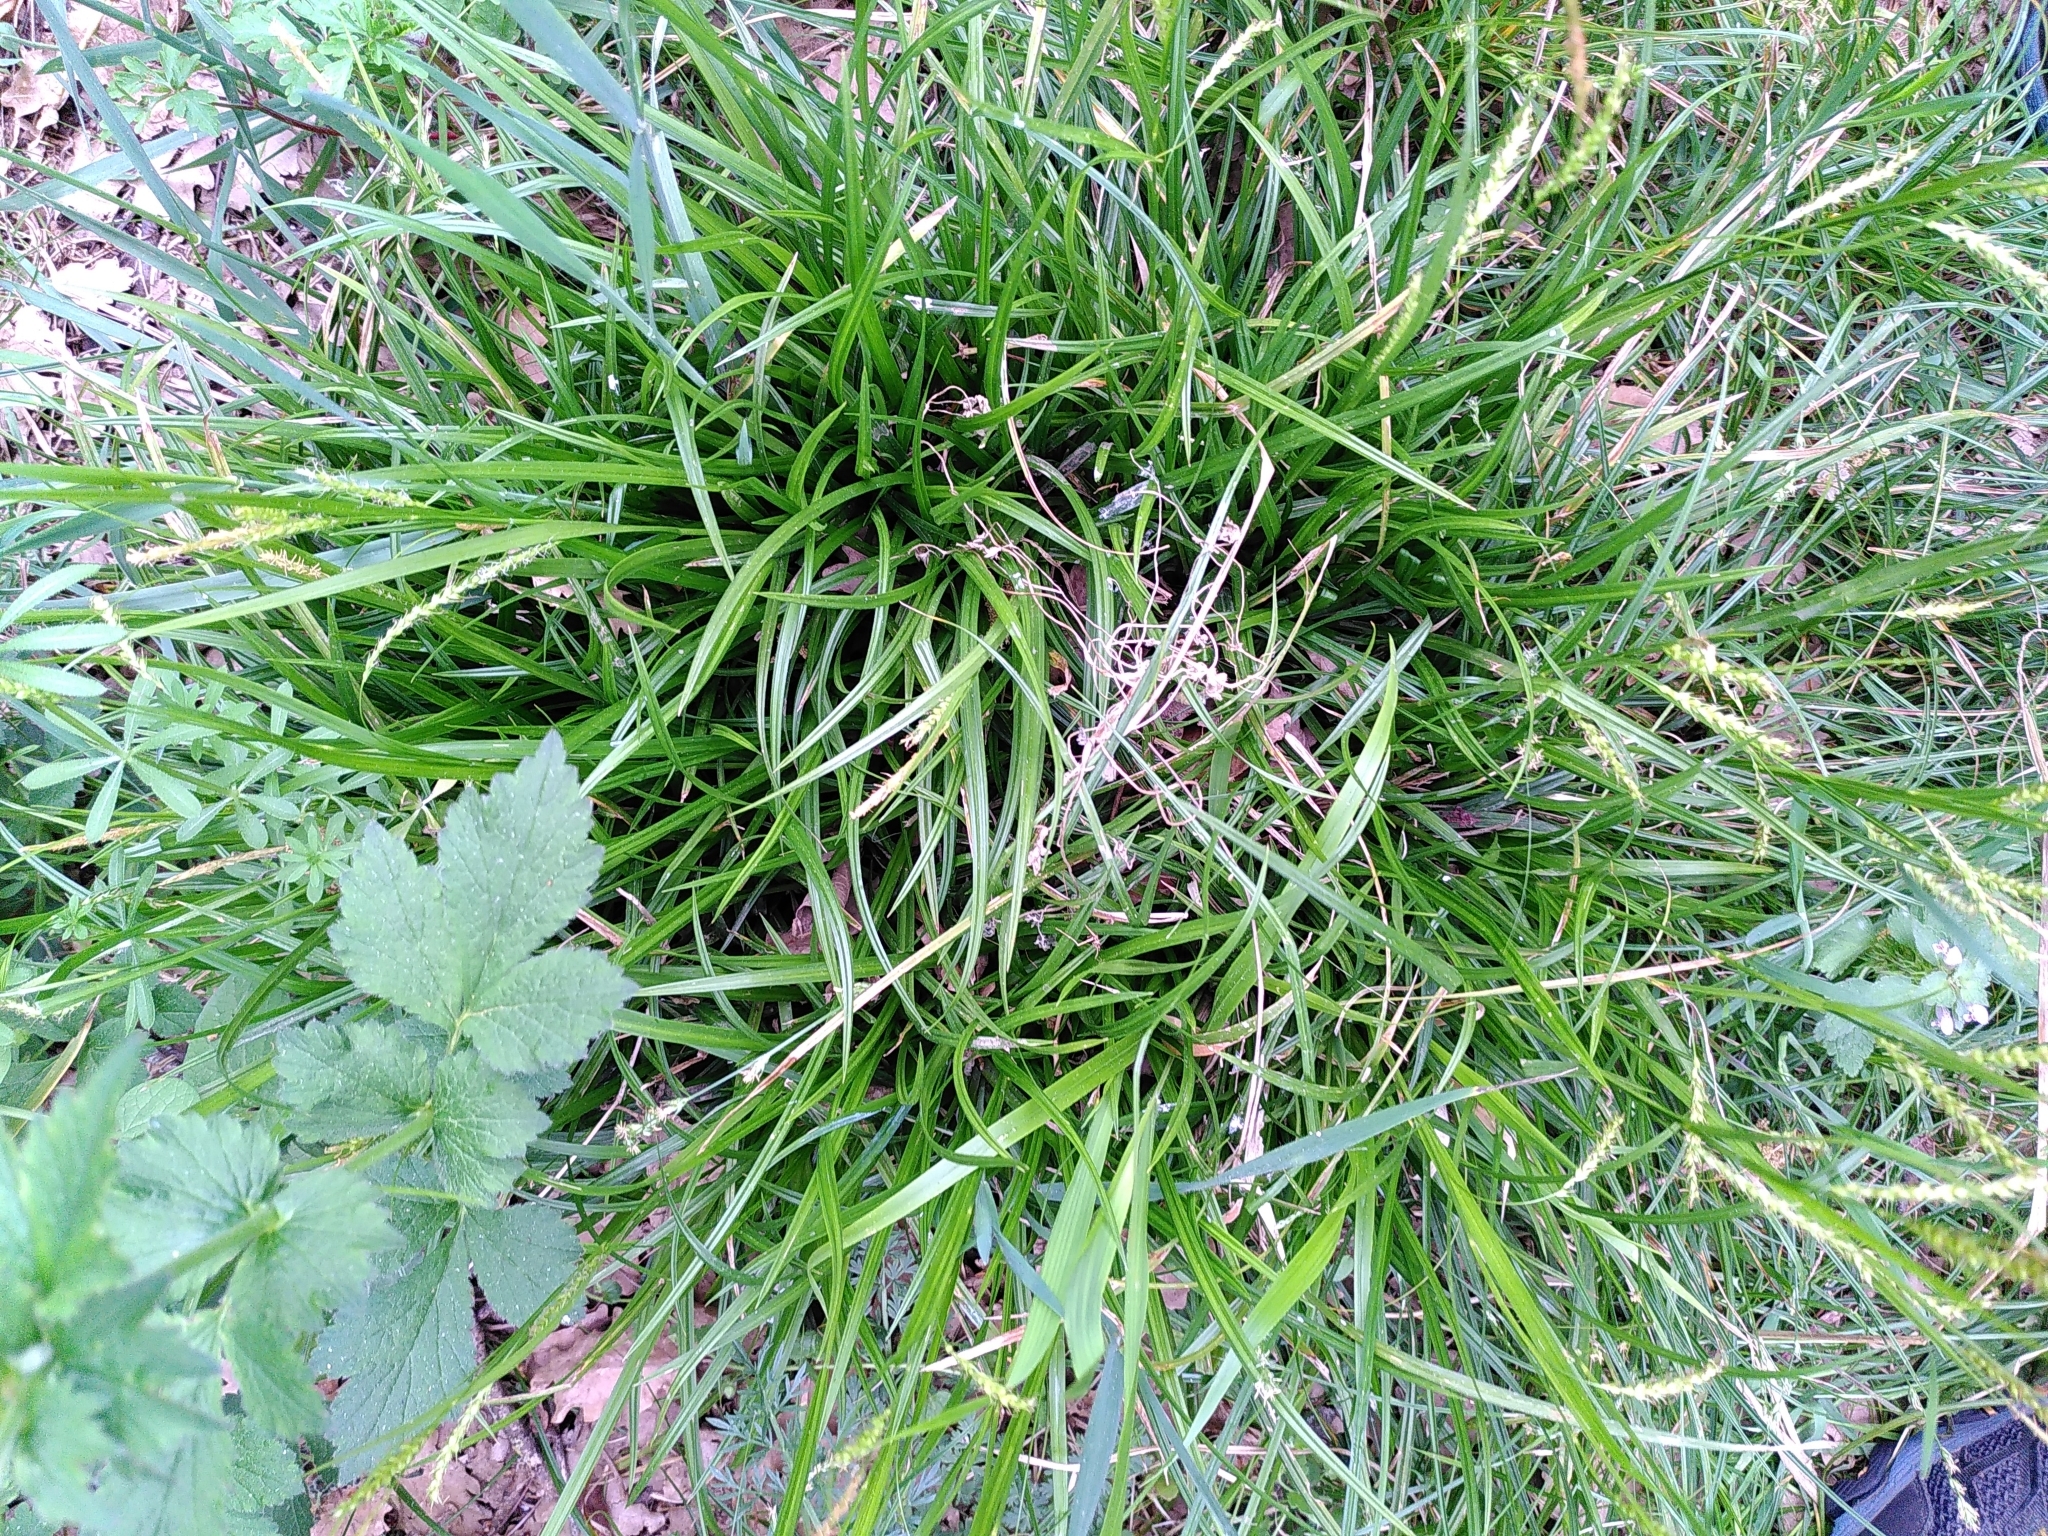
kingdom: Plantae
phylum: Tracheophyta
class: Liliopsida
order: Poales
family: Cyperaceae
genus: Carex
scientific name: Carex sylvatica
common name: Wood-sedge
